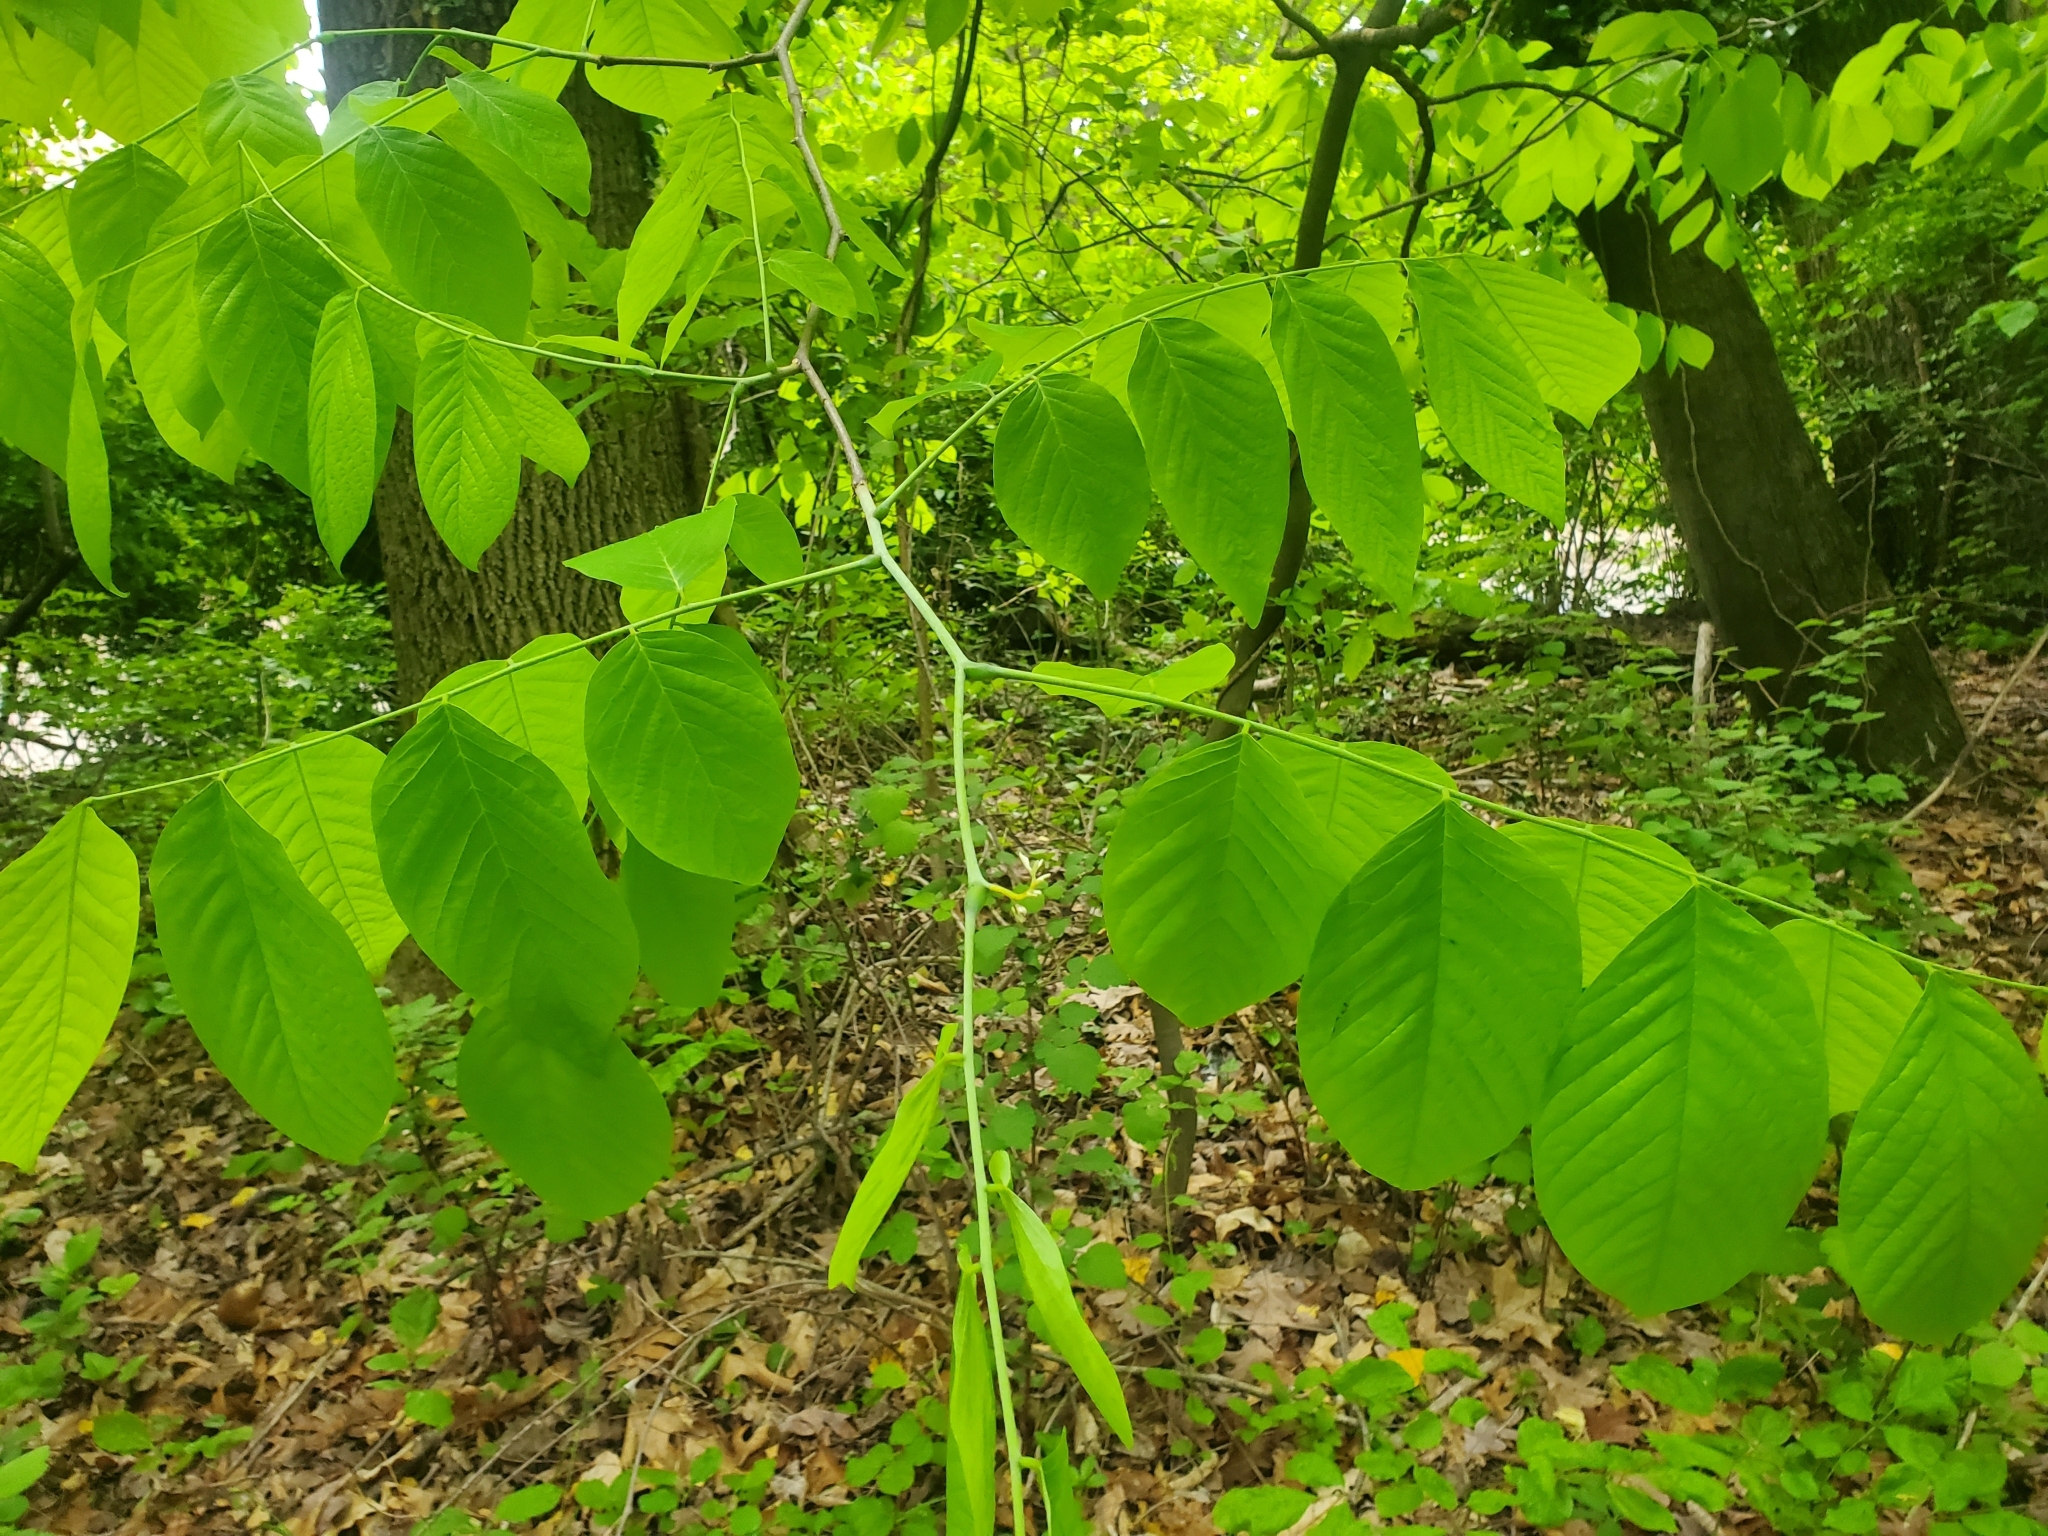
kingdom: Plantae
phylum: Tracheophyta
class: Magnoliopsida
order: Fabales
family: Fabaceae
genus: Cladrastis
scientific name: Cladrastis kentukea
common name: Kentucky yellow-wood
